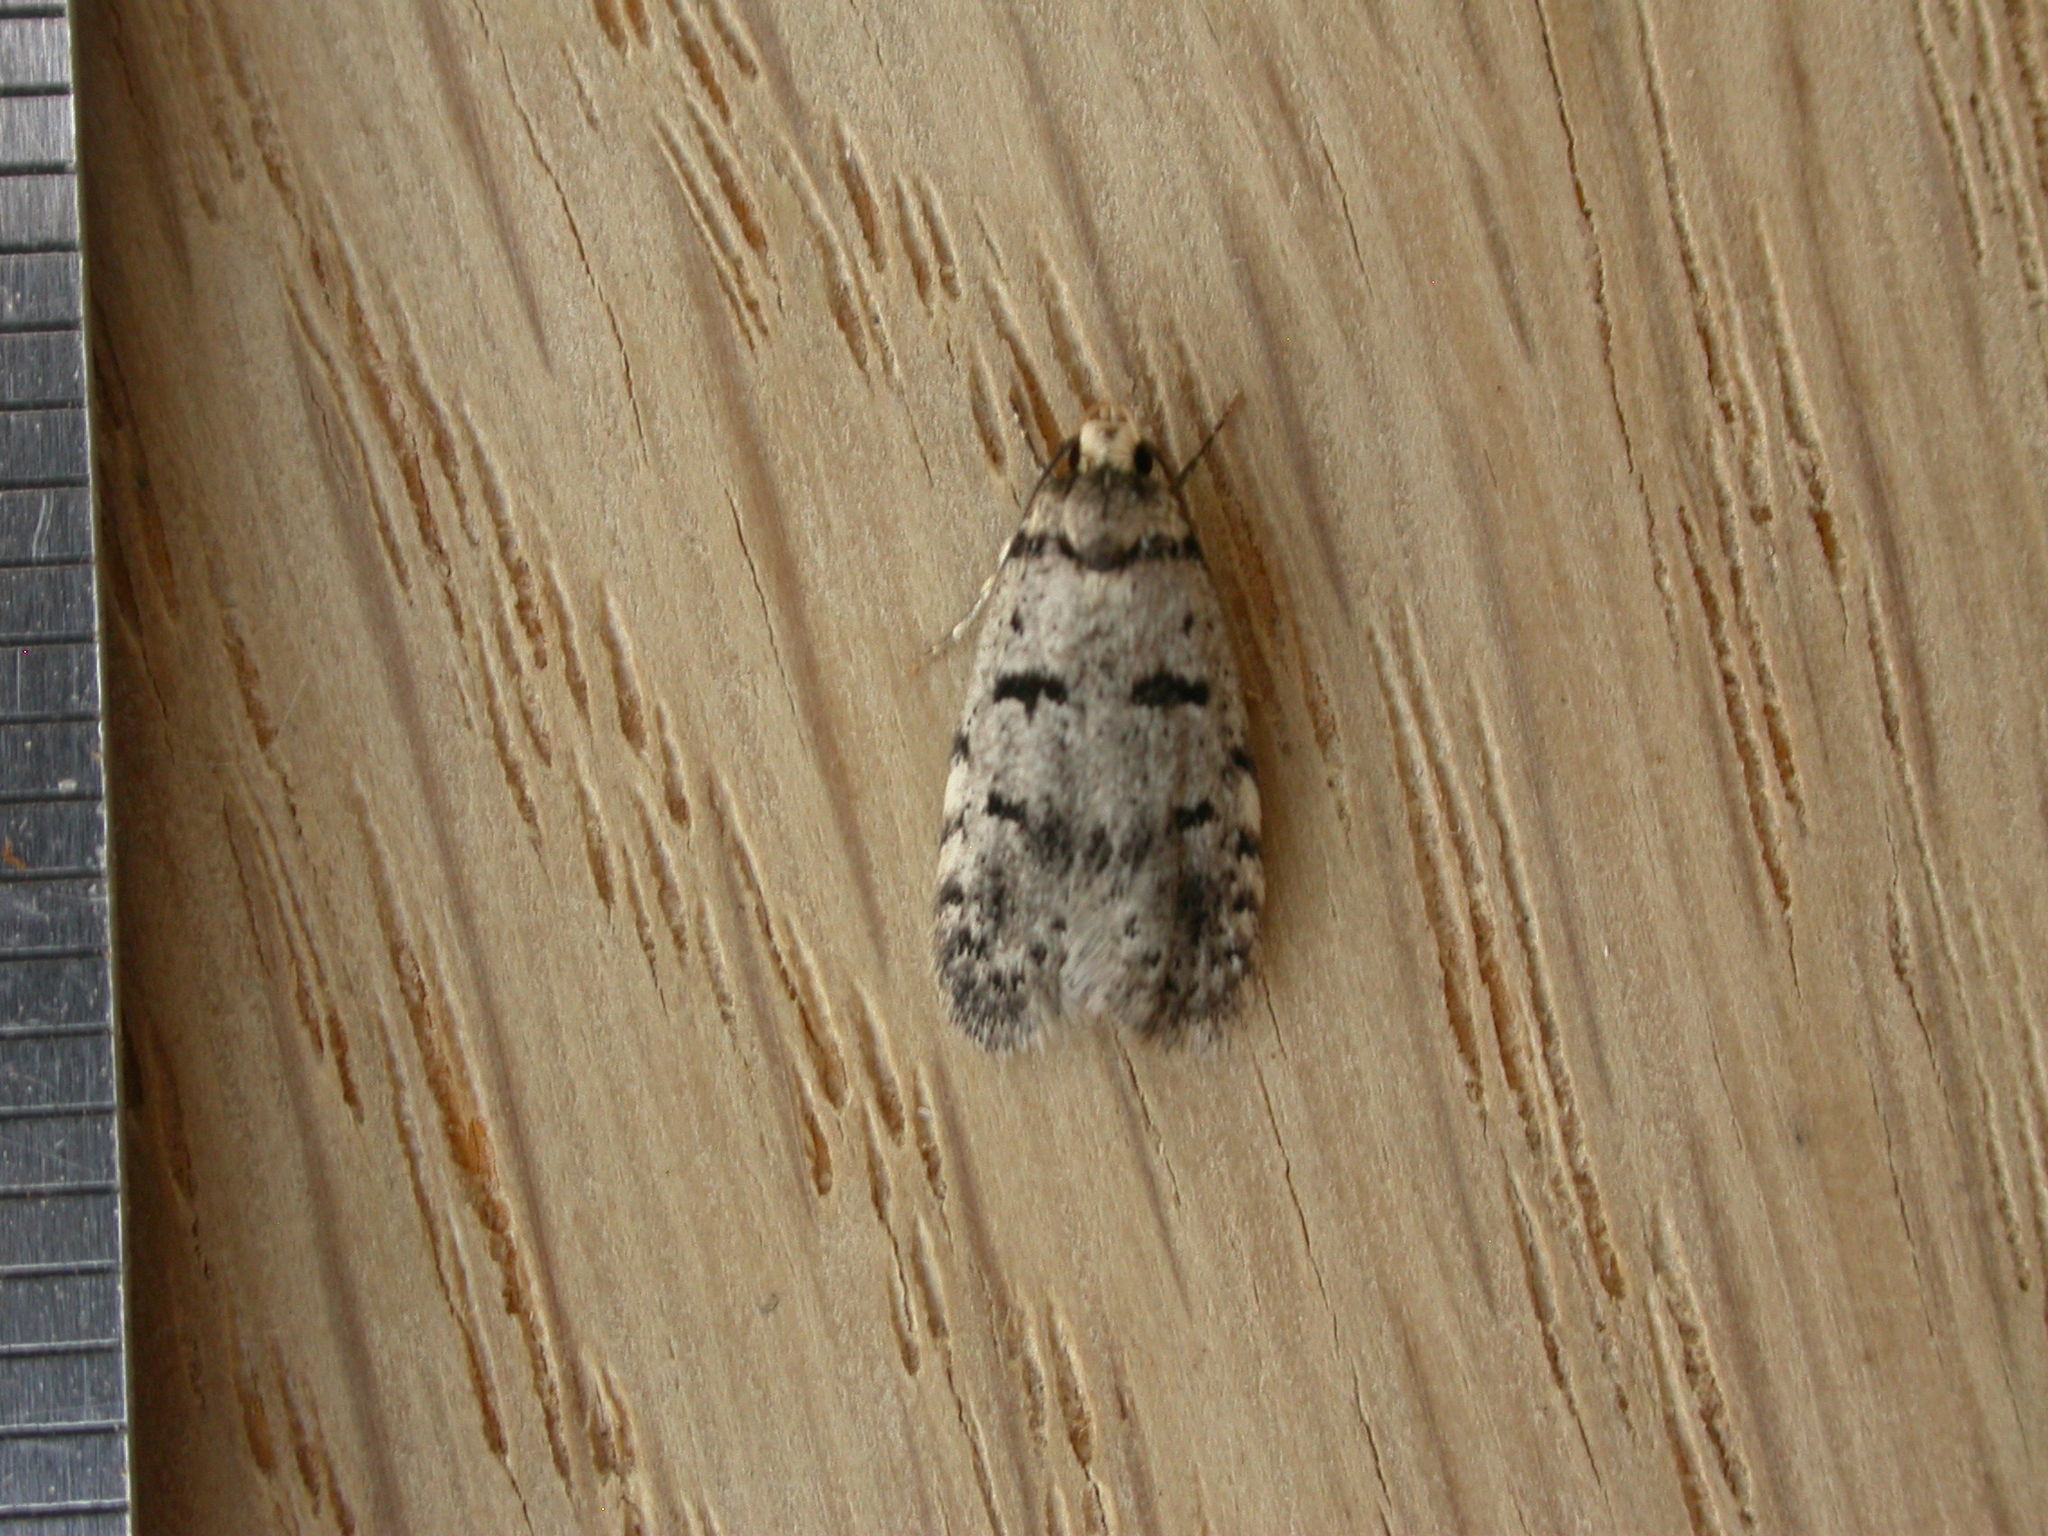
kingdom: Animalia
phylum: Arthropoda
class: Insecta
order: Lepidoptera
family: Oecophoridae
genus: Scatochresis
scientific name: Scatochresis
